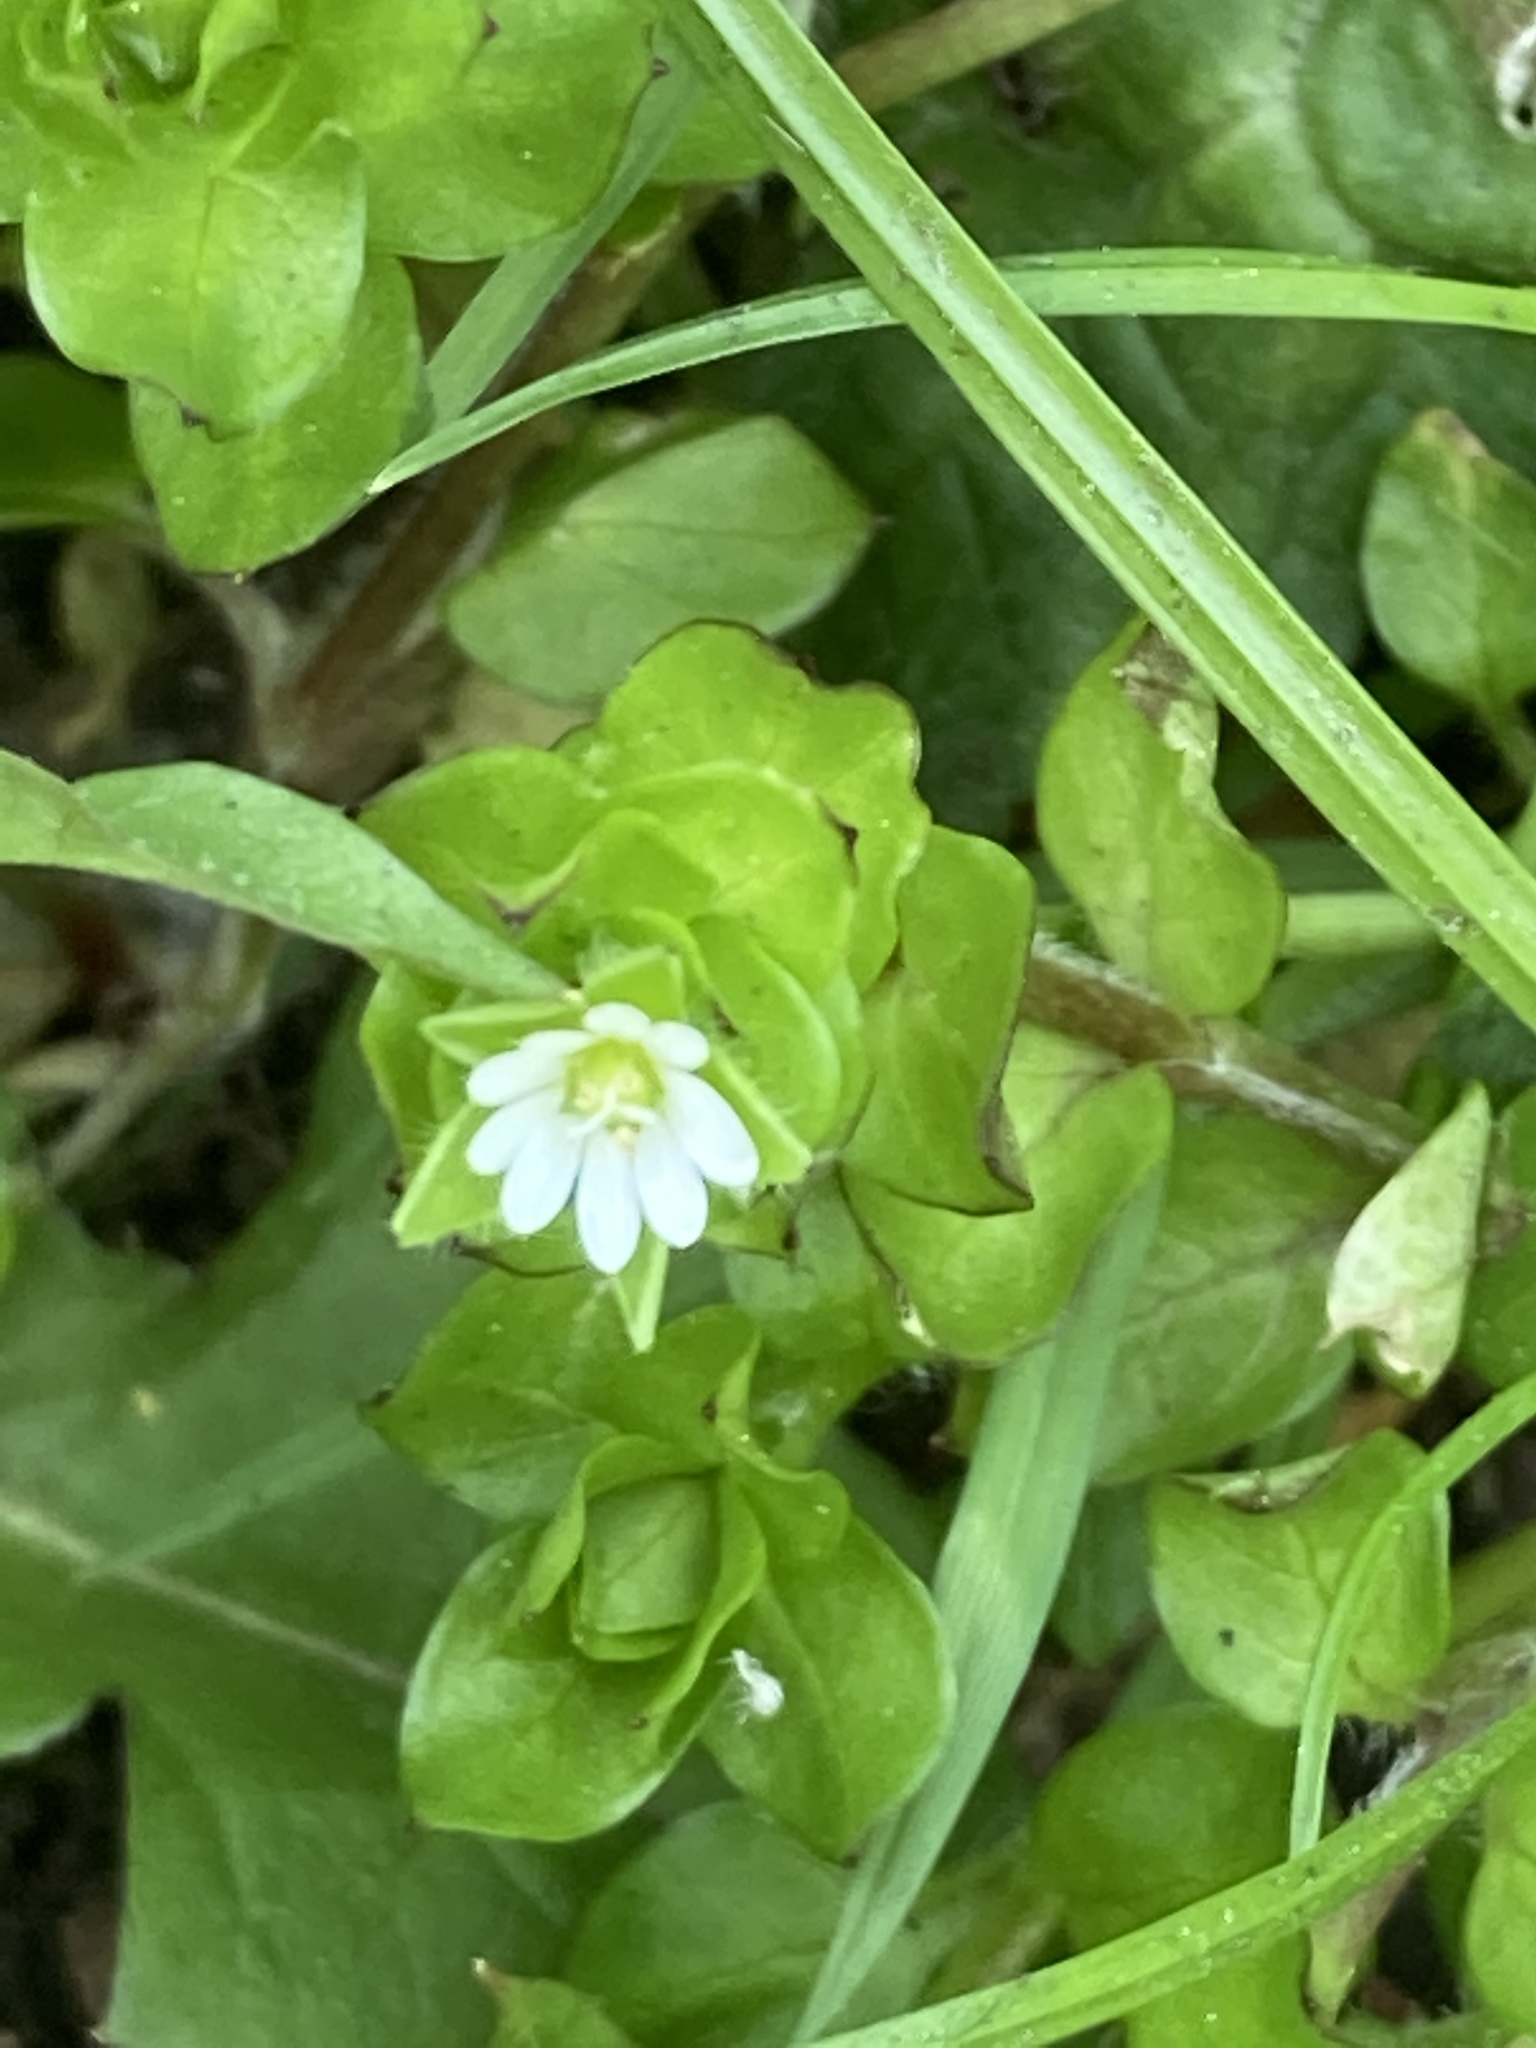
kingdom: Plantae
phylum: Tracheophyta
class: Magnoliopsida
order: Caryophyllales
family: Caryophyllaceae
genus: Stellaria
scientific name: Stellaria media
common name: Common chickweed
